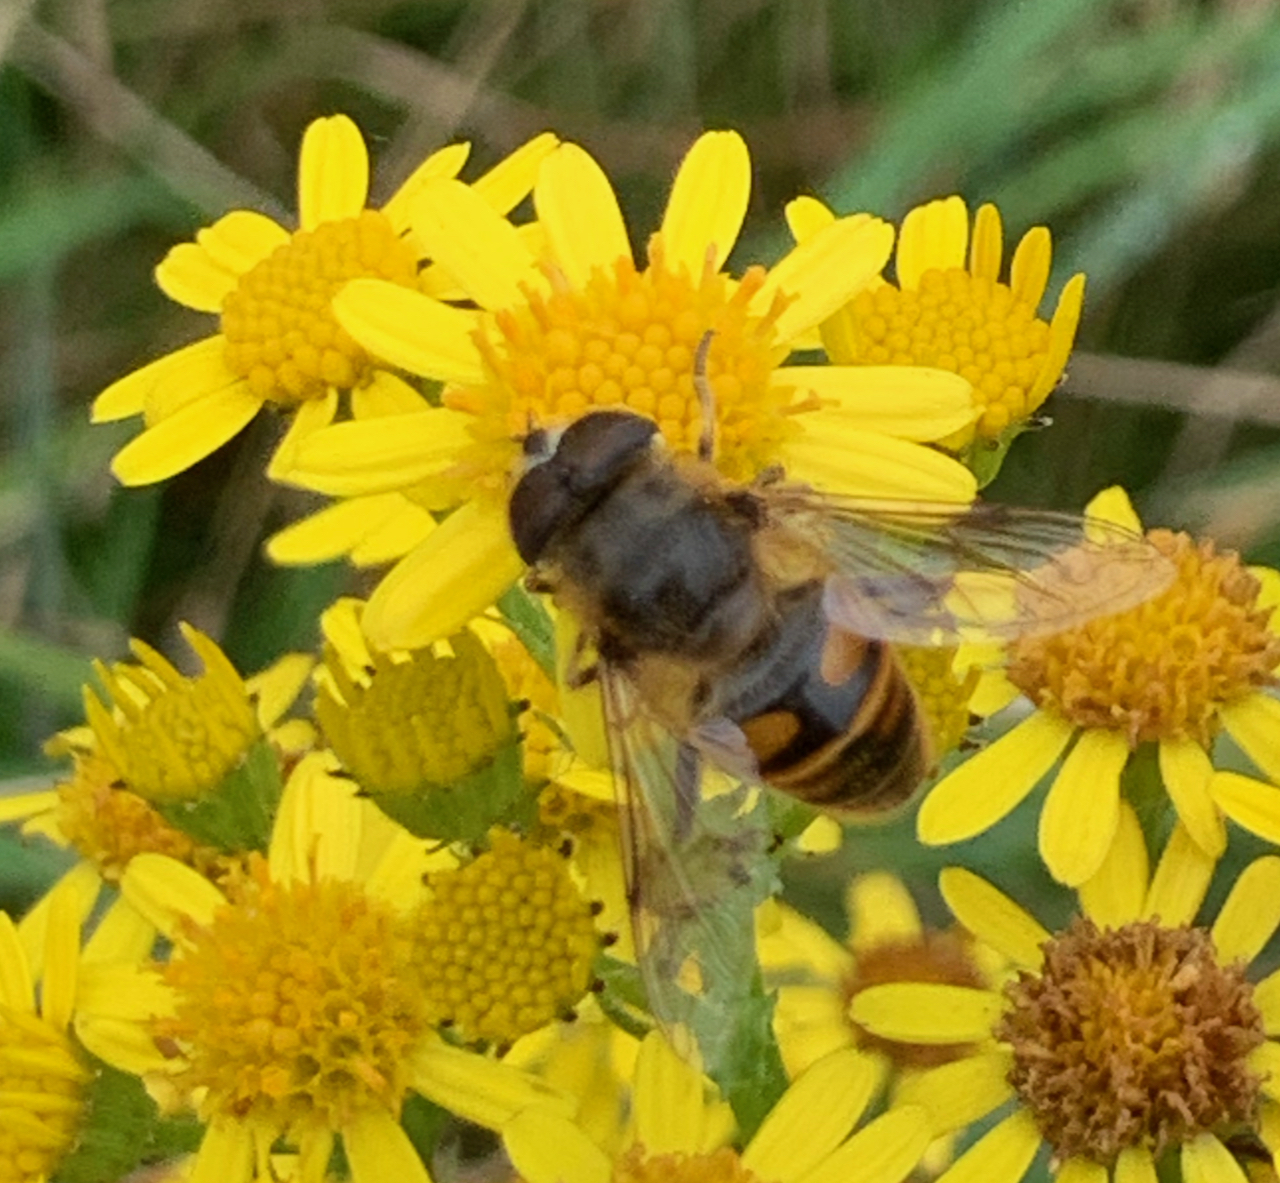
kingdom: Animalia
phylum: Arthropoda
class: Insecta
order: Diptera
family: Syrphidae
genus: Eristalis
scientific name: Eristalis pertinax
